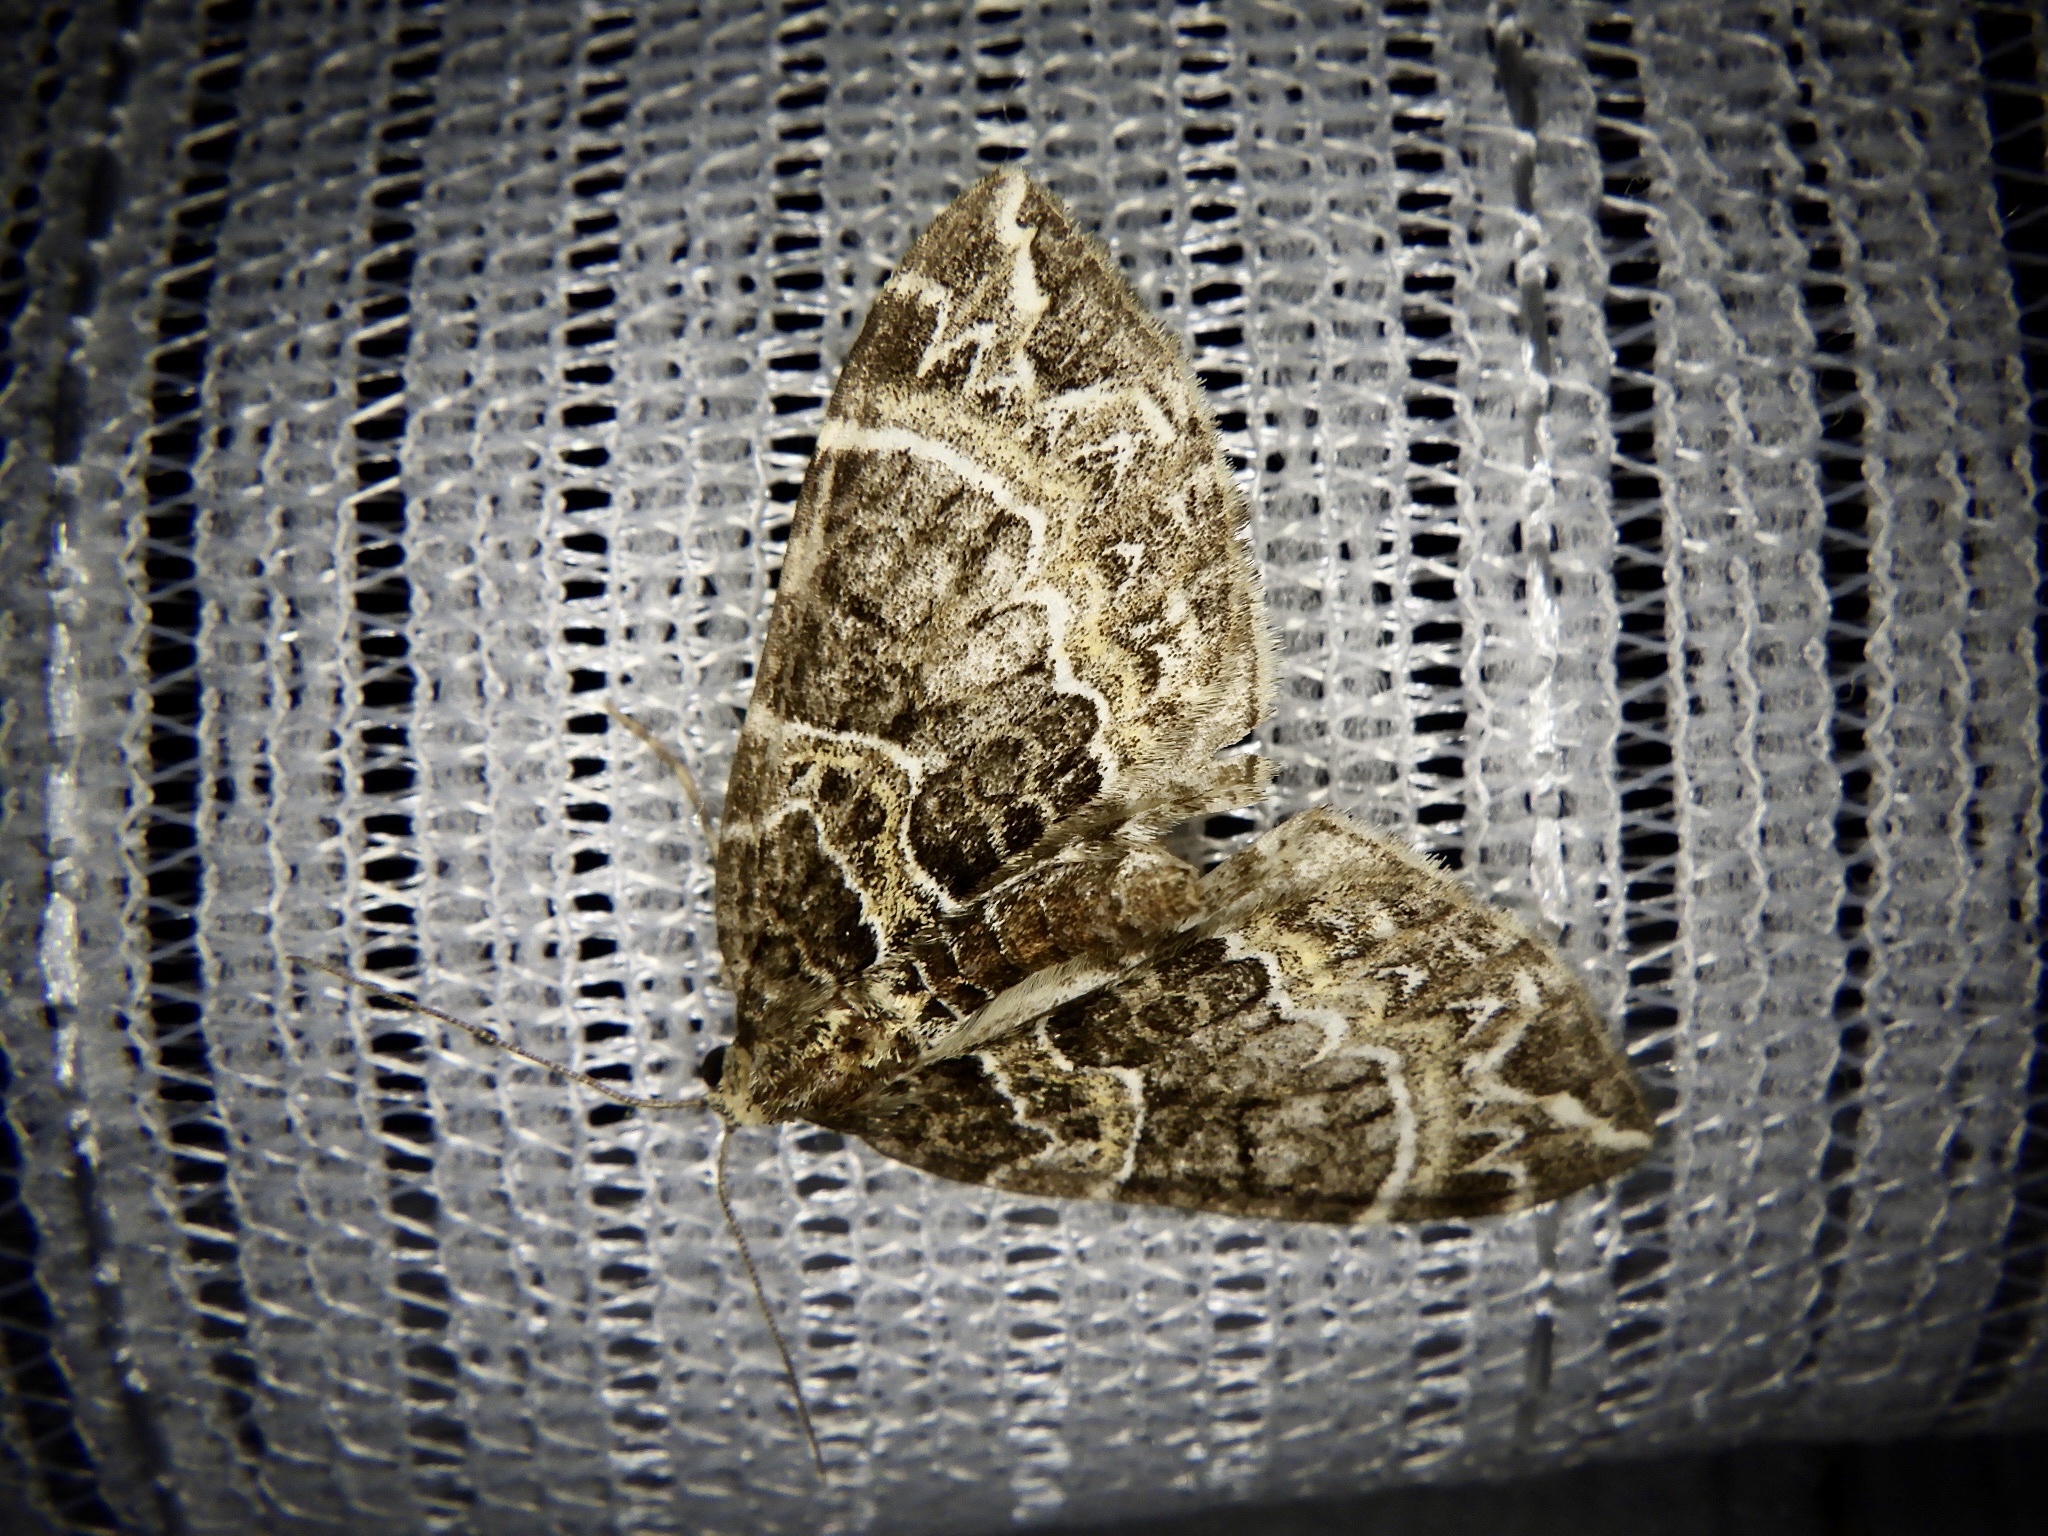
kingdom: Animalia
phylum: Arthropoda
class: Insecta
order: Lepidoptera
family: Geometridae
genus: Ecliptopera
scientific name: Ecliptopera umbrosaria
